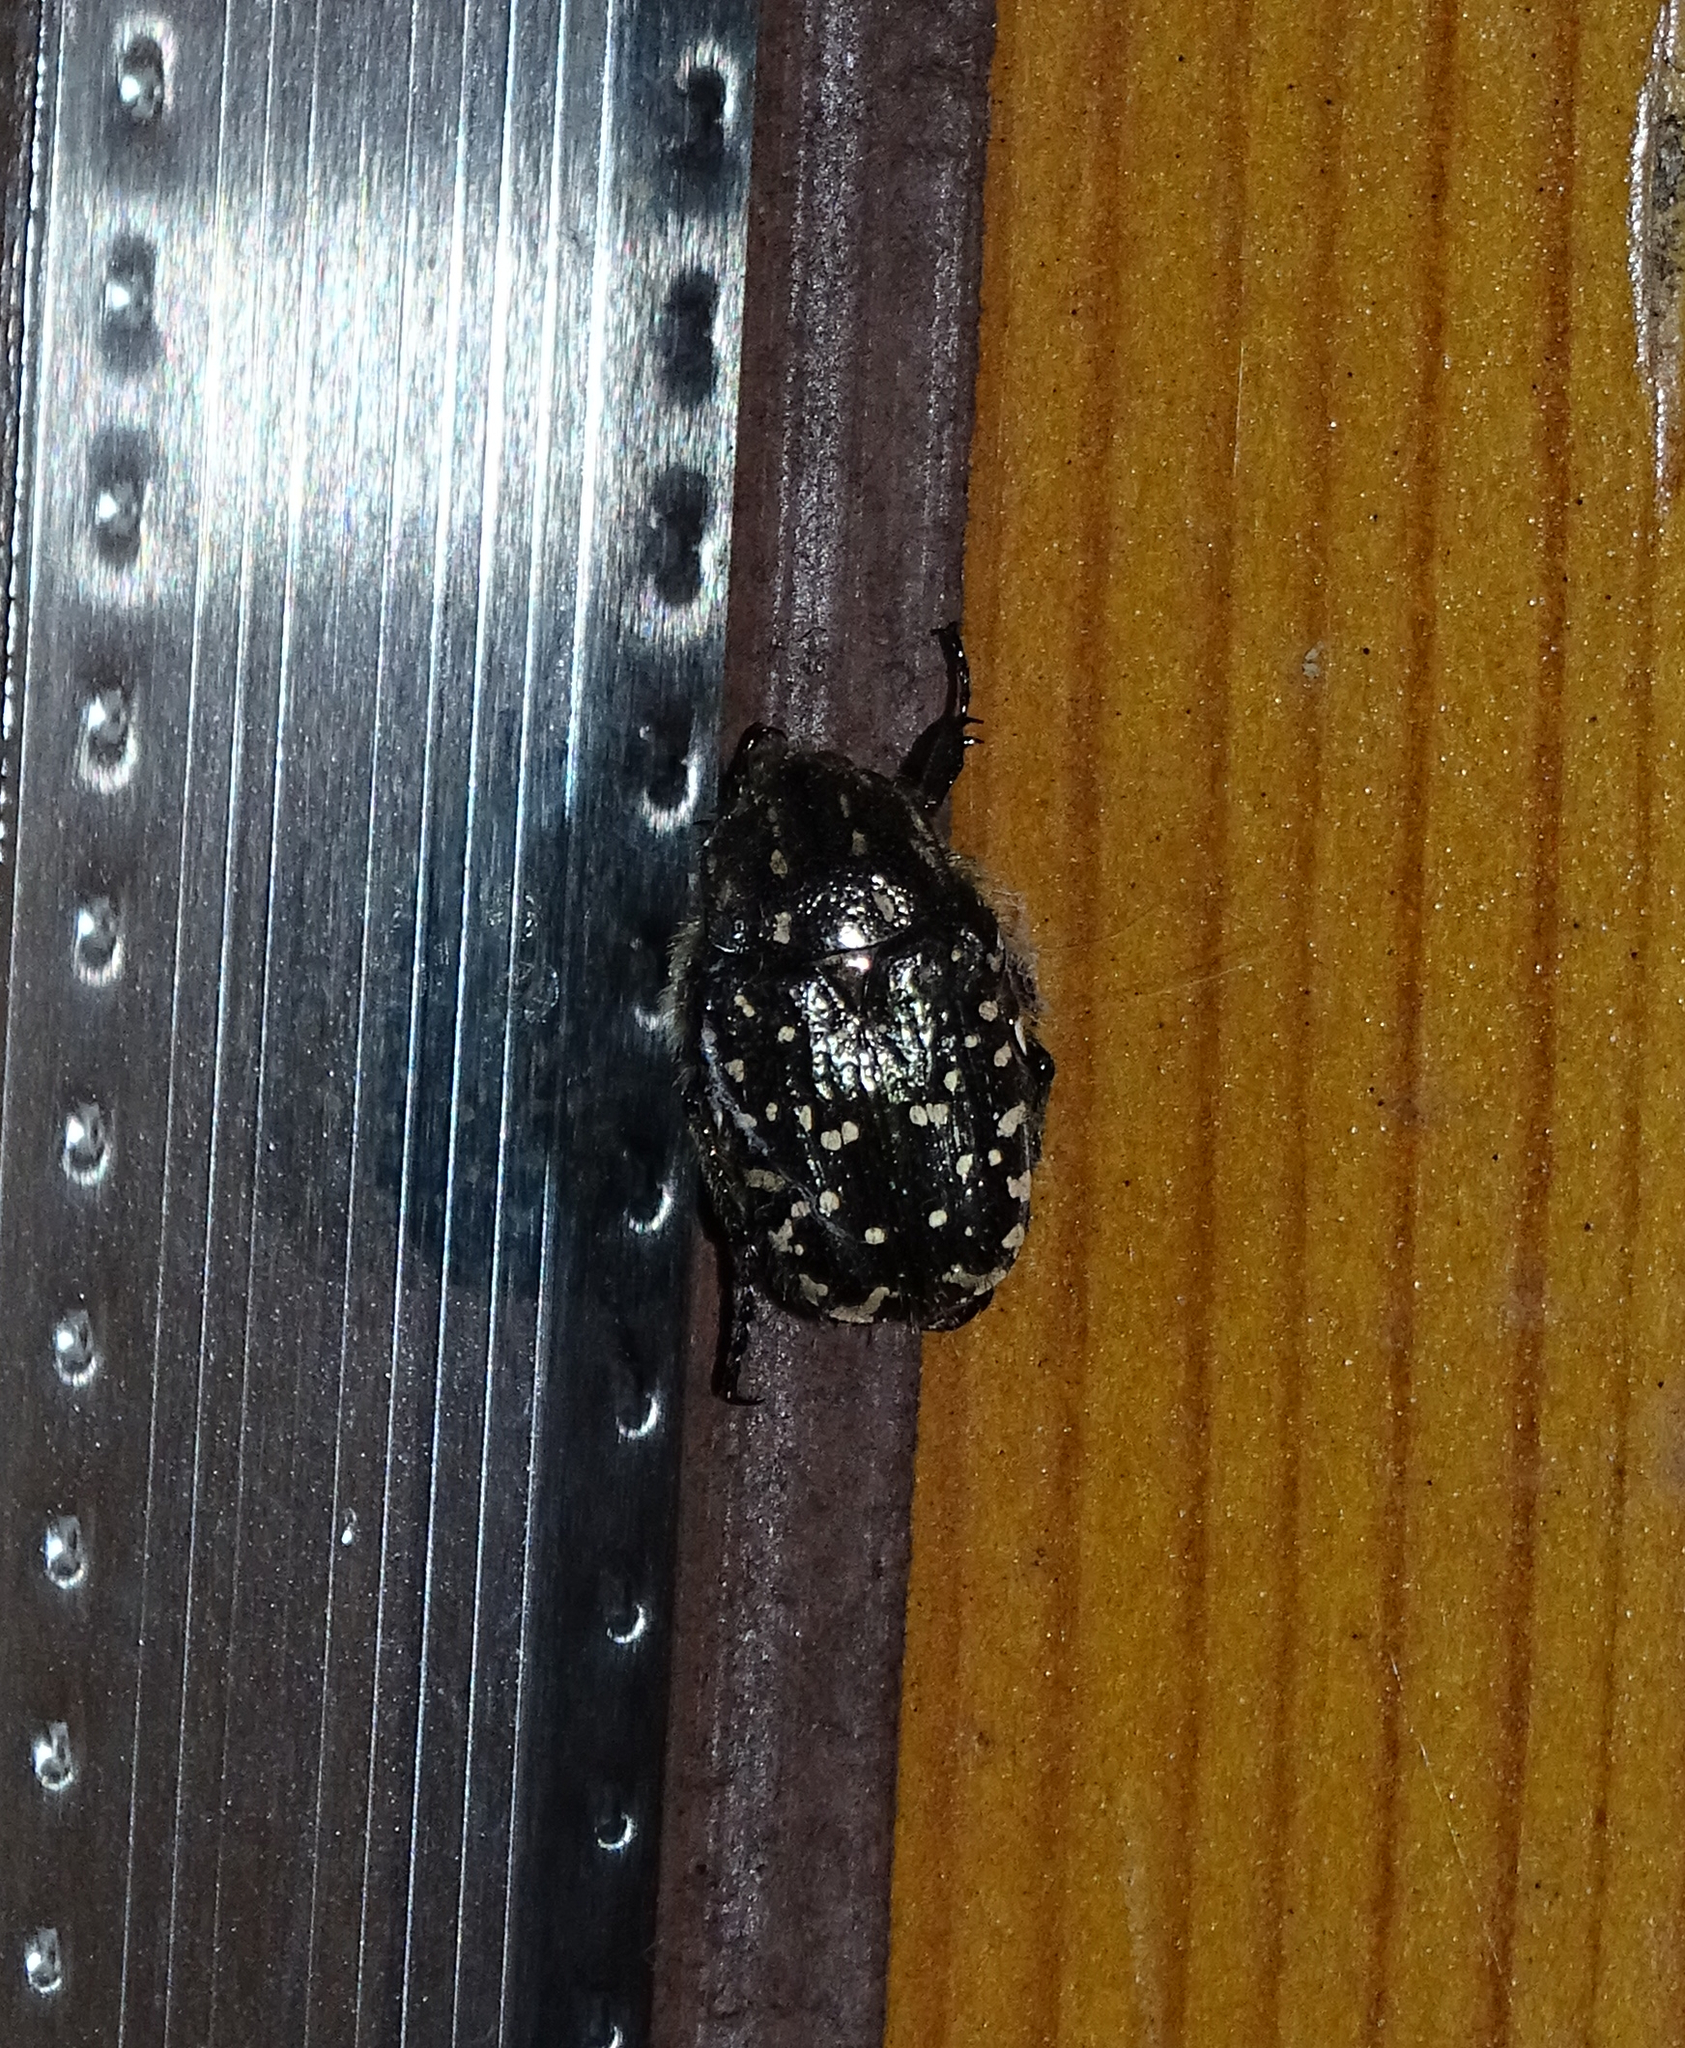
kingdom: Animalia
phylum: Arthropoda
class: Insecta
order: Coleoptera
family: Scarabaeidae
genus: Oxythyrea
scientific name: Oxythyrea funesta
